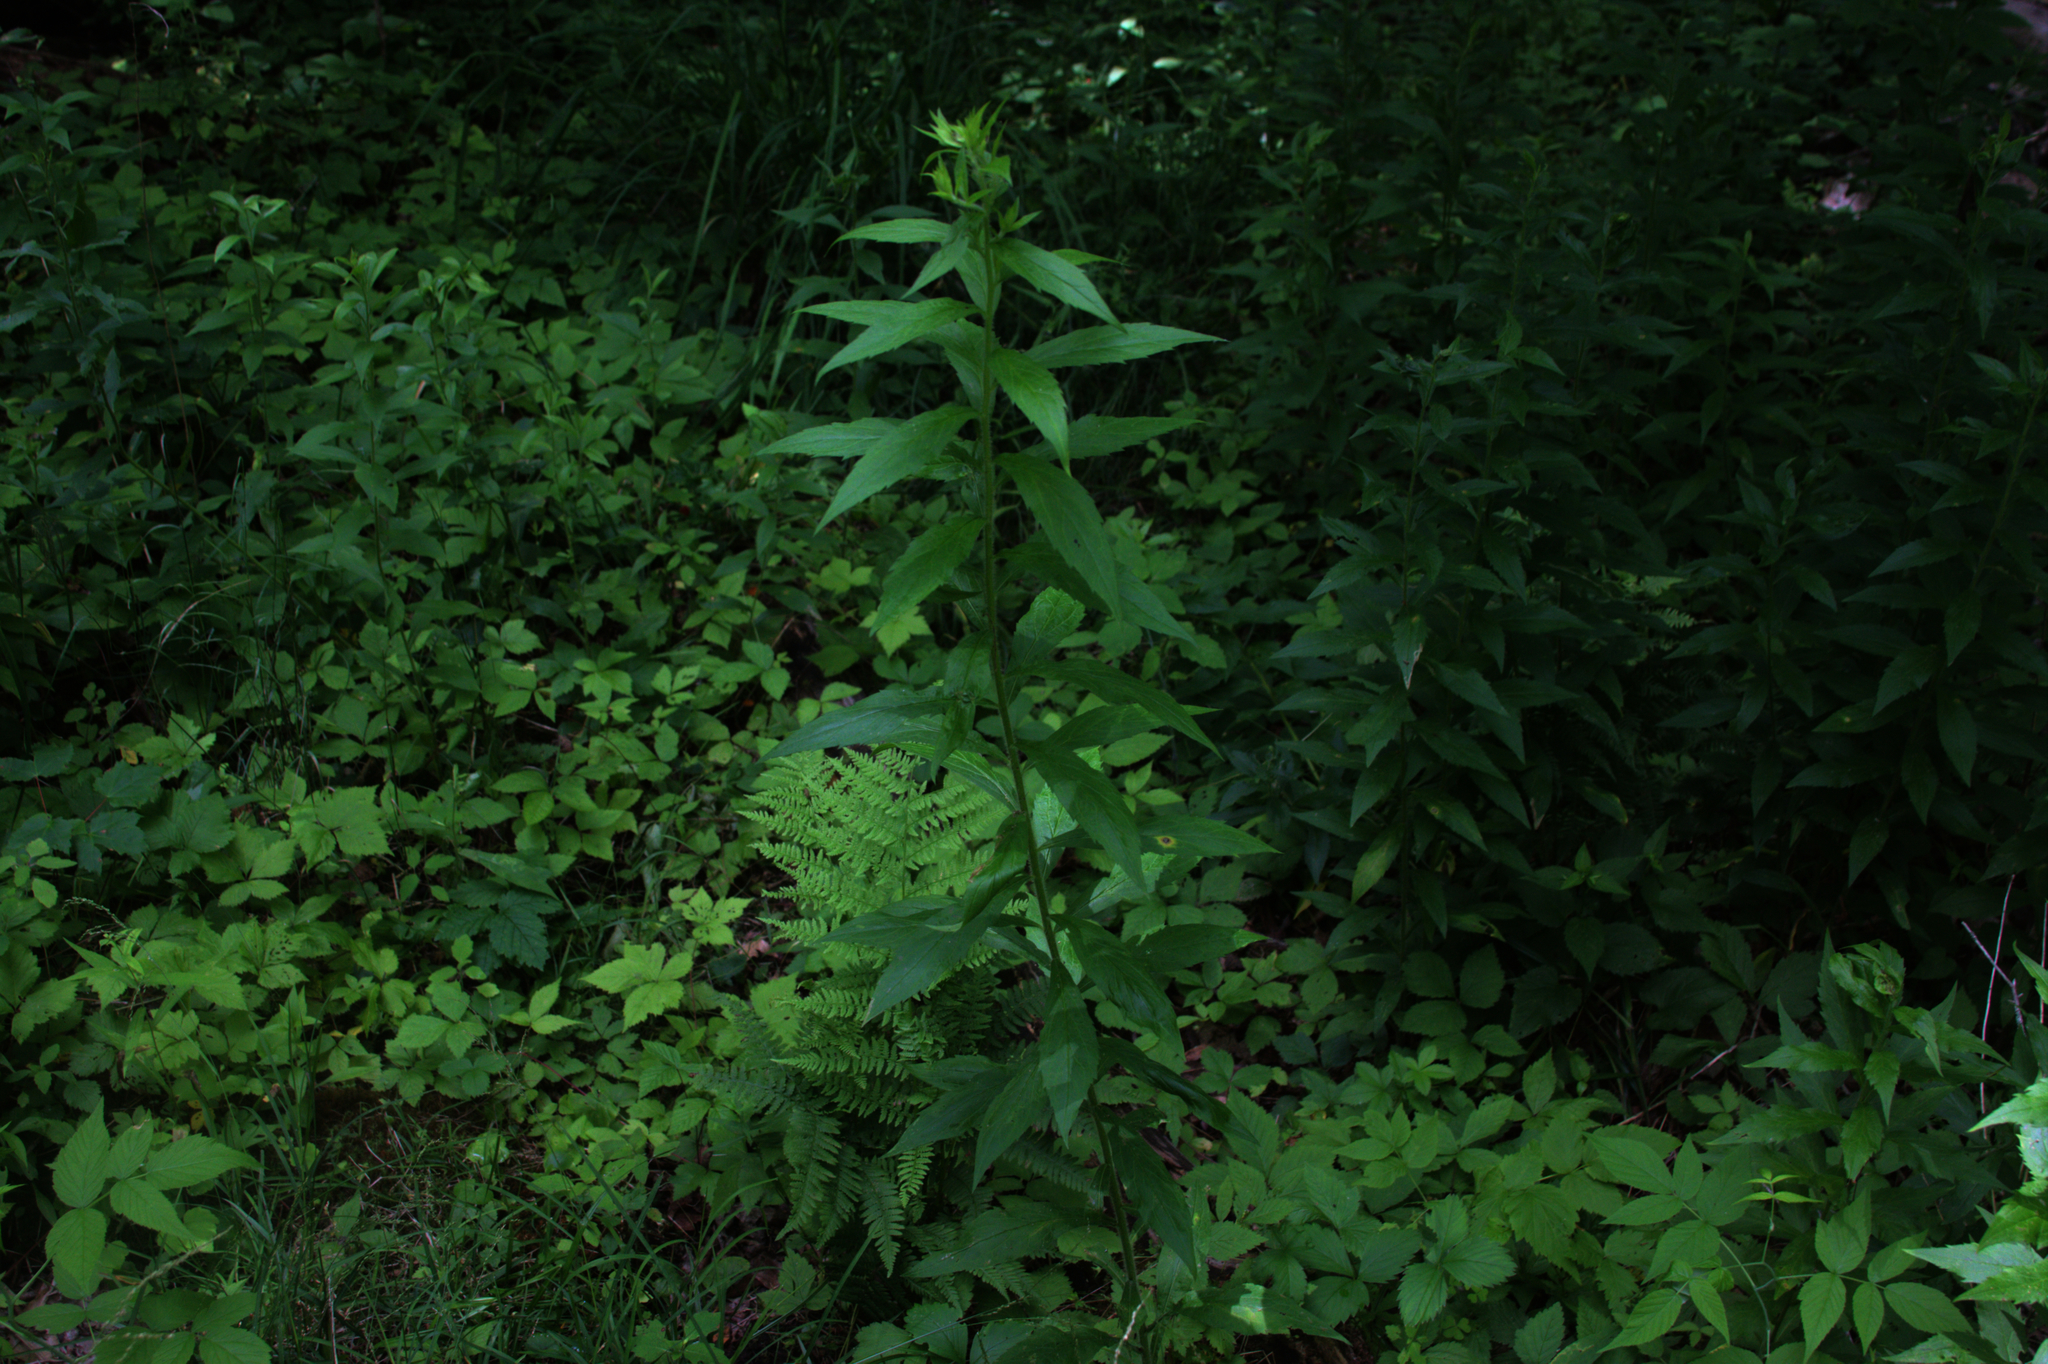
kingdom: Plantae
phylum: Tracheophyta
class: Magnoliopsida
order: Asterales
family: Asteraceae
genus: Solidago
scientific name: Solidago rugosa
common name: Rough-stemmed goldenrod
